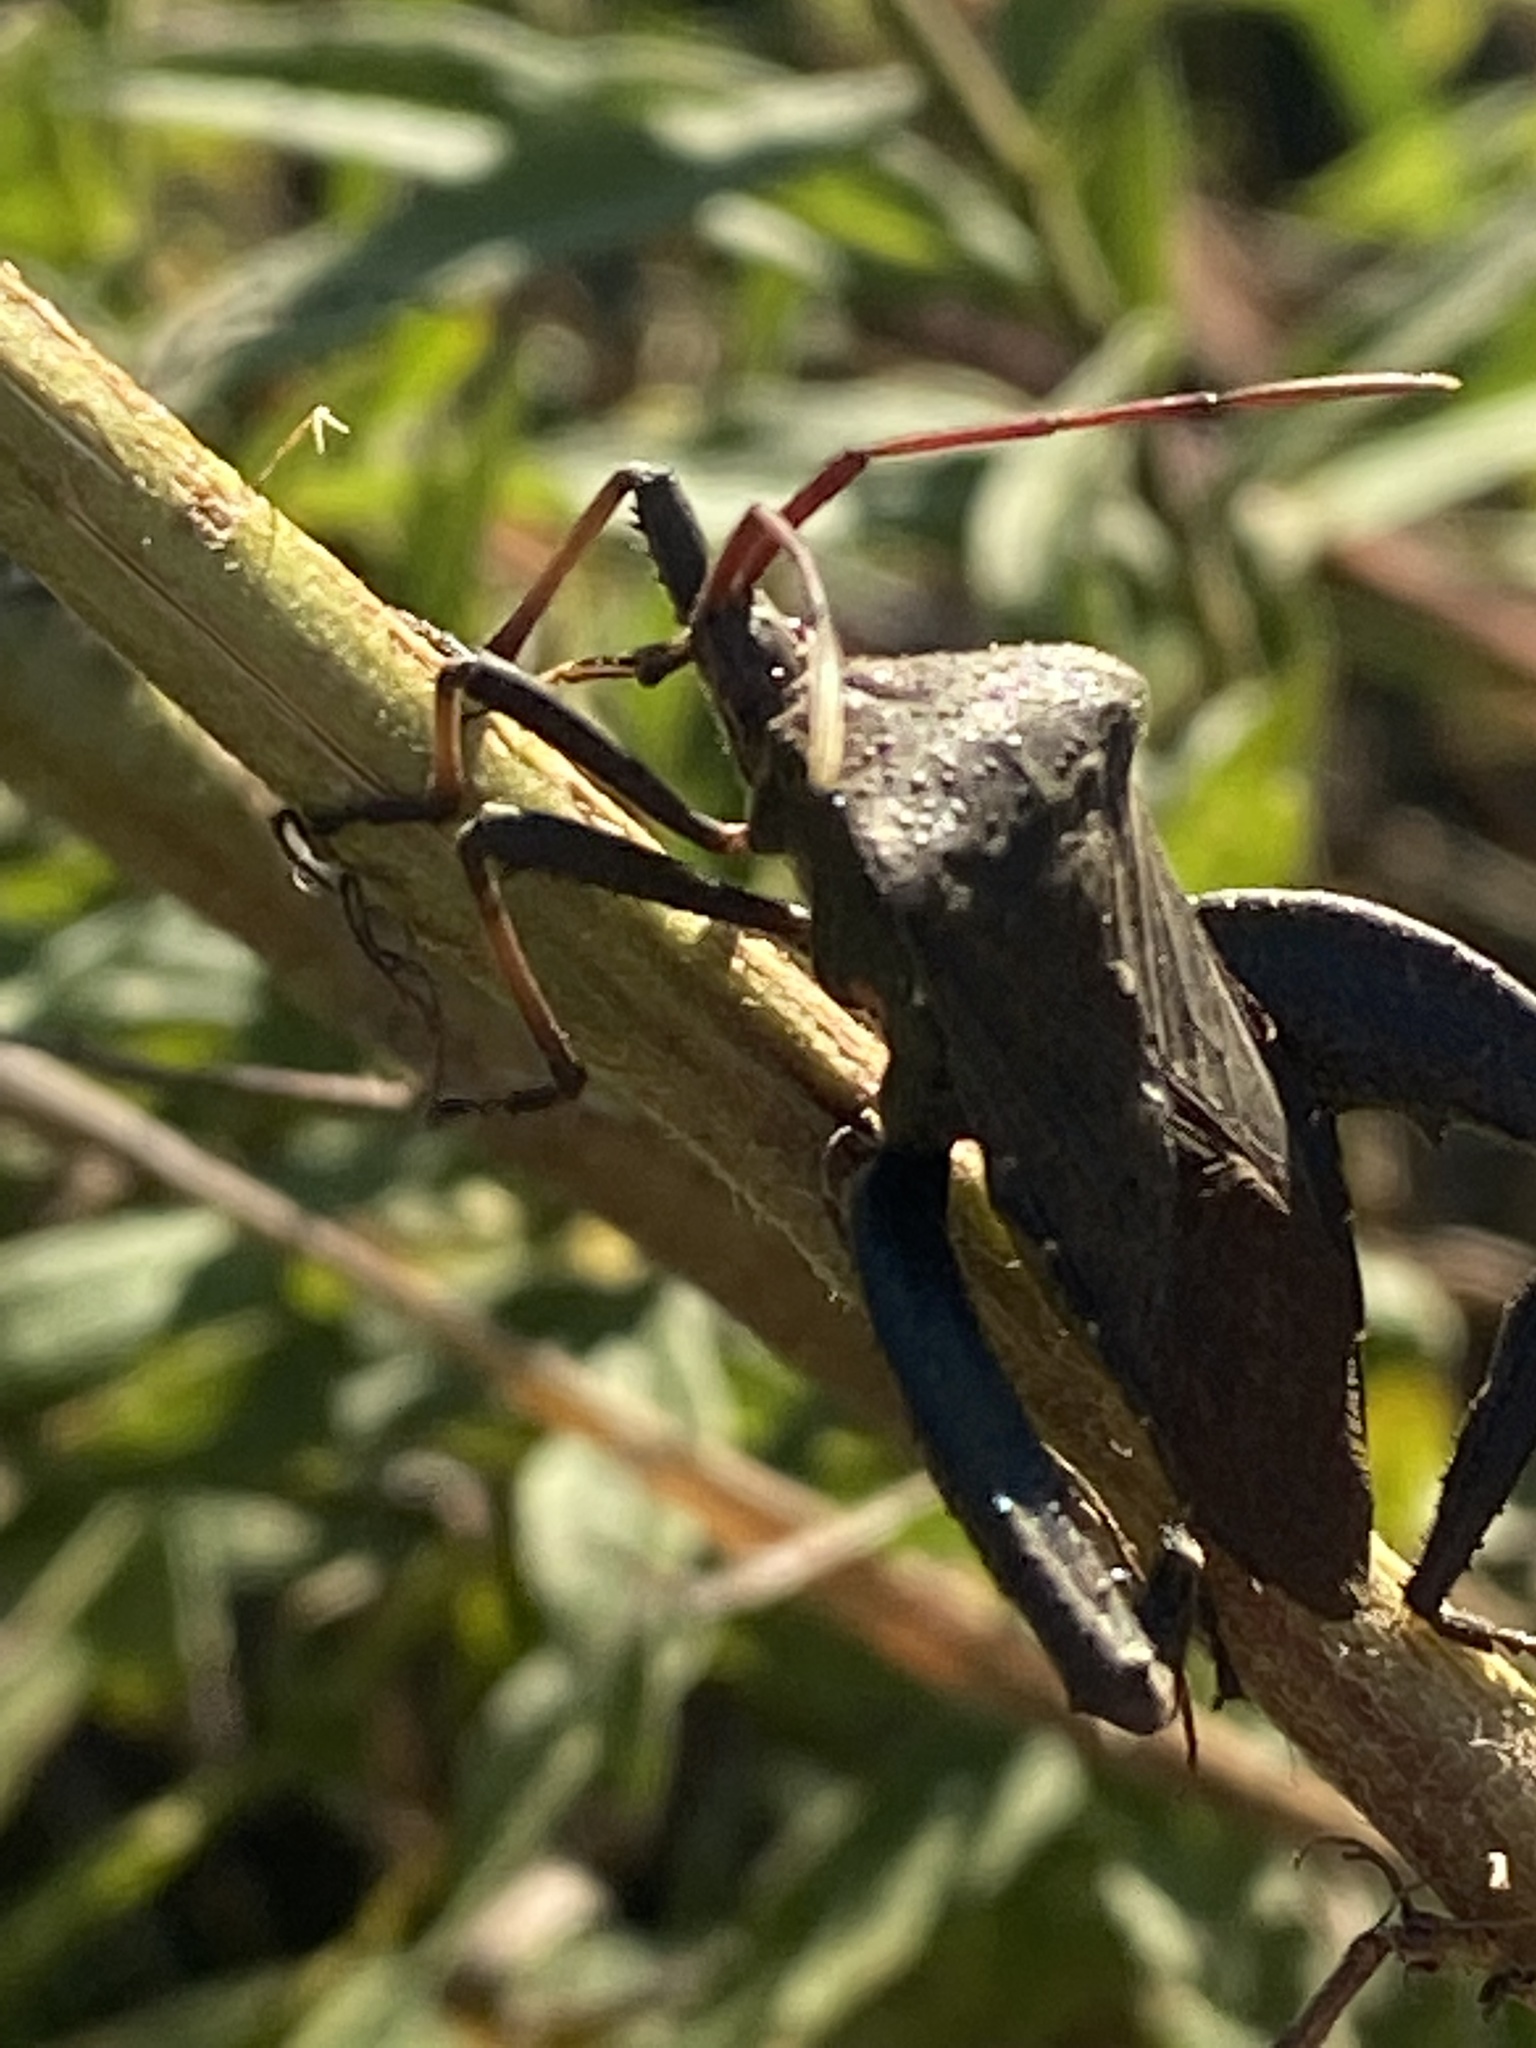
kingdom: Animalia
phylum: Arthropoda
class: Insecta
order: Hemiptera
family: Coreidae
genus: Acanthocephala
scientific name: Acanthocephala femorata
